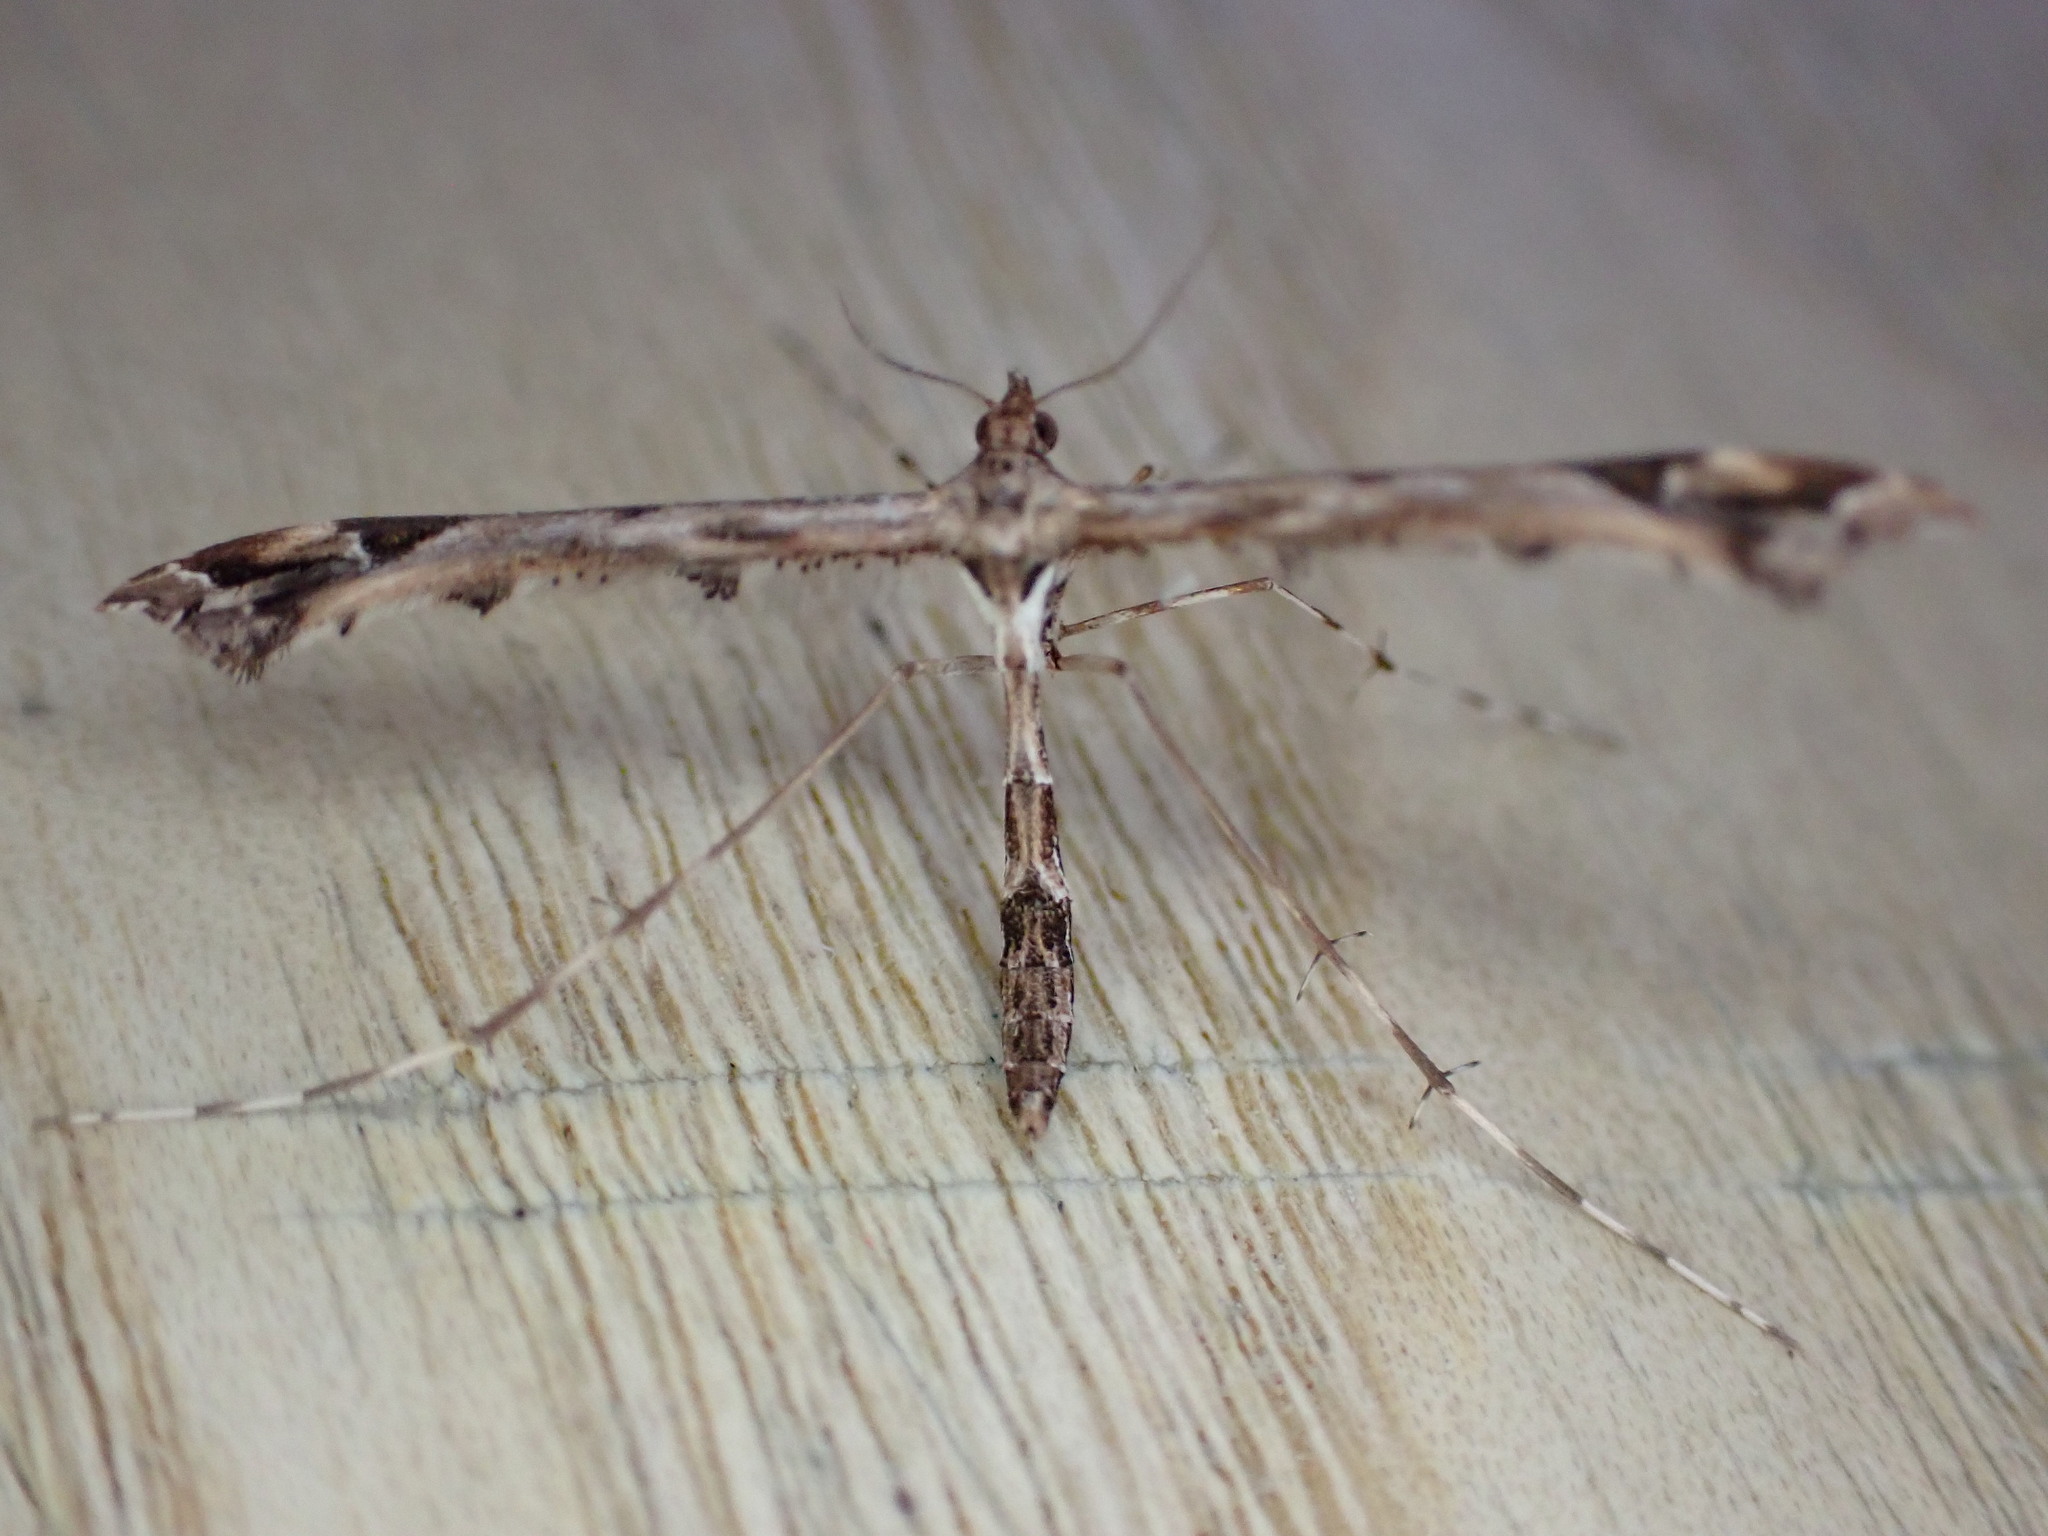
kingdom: Animalia
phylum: Arthropoda
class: Insecta
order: Lepidoptera
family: Pterophoridae
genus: Amblyptilia
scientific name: Amblyptilia acanthadactyla
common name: Beautiful plume
